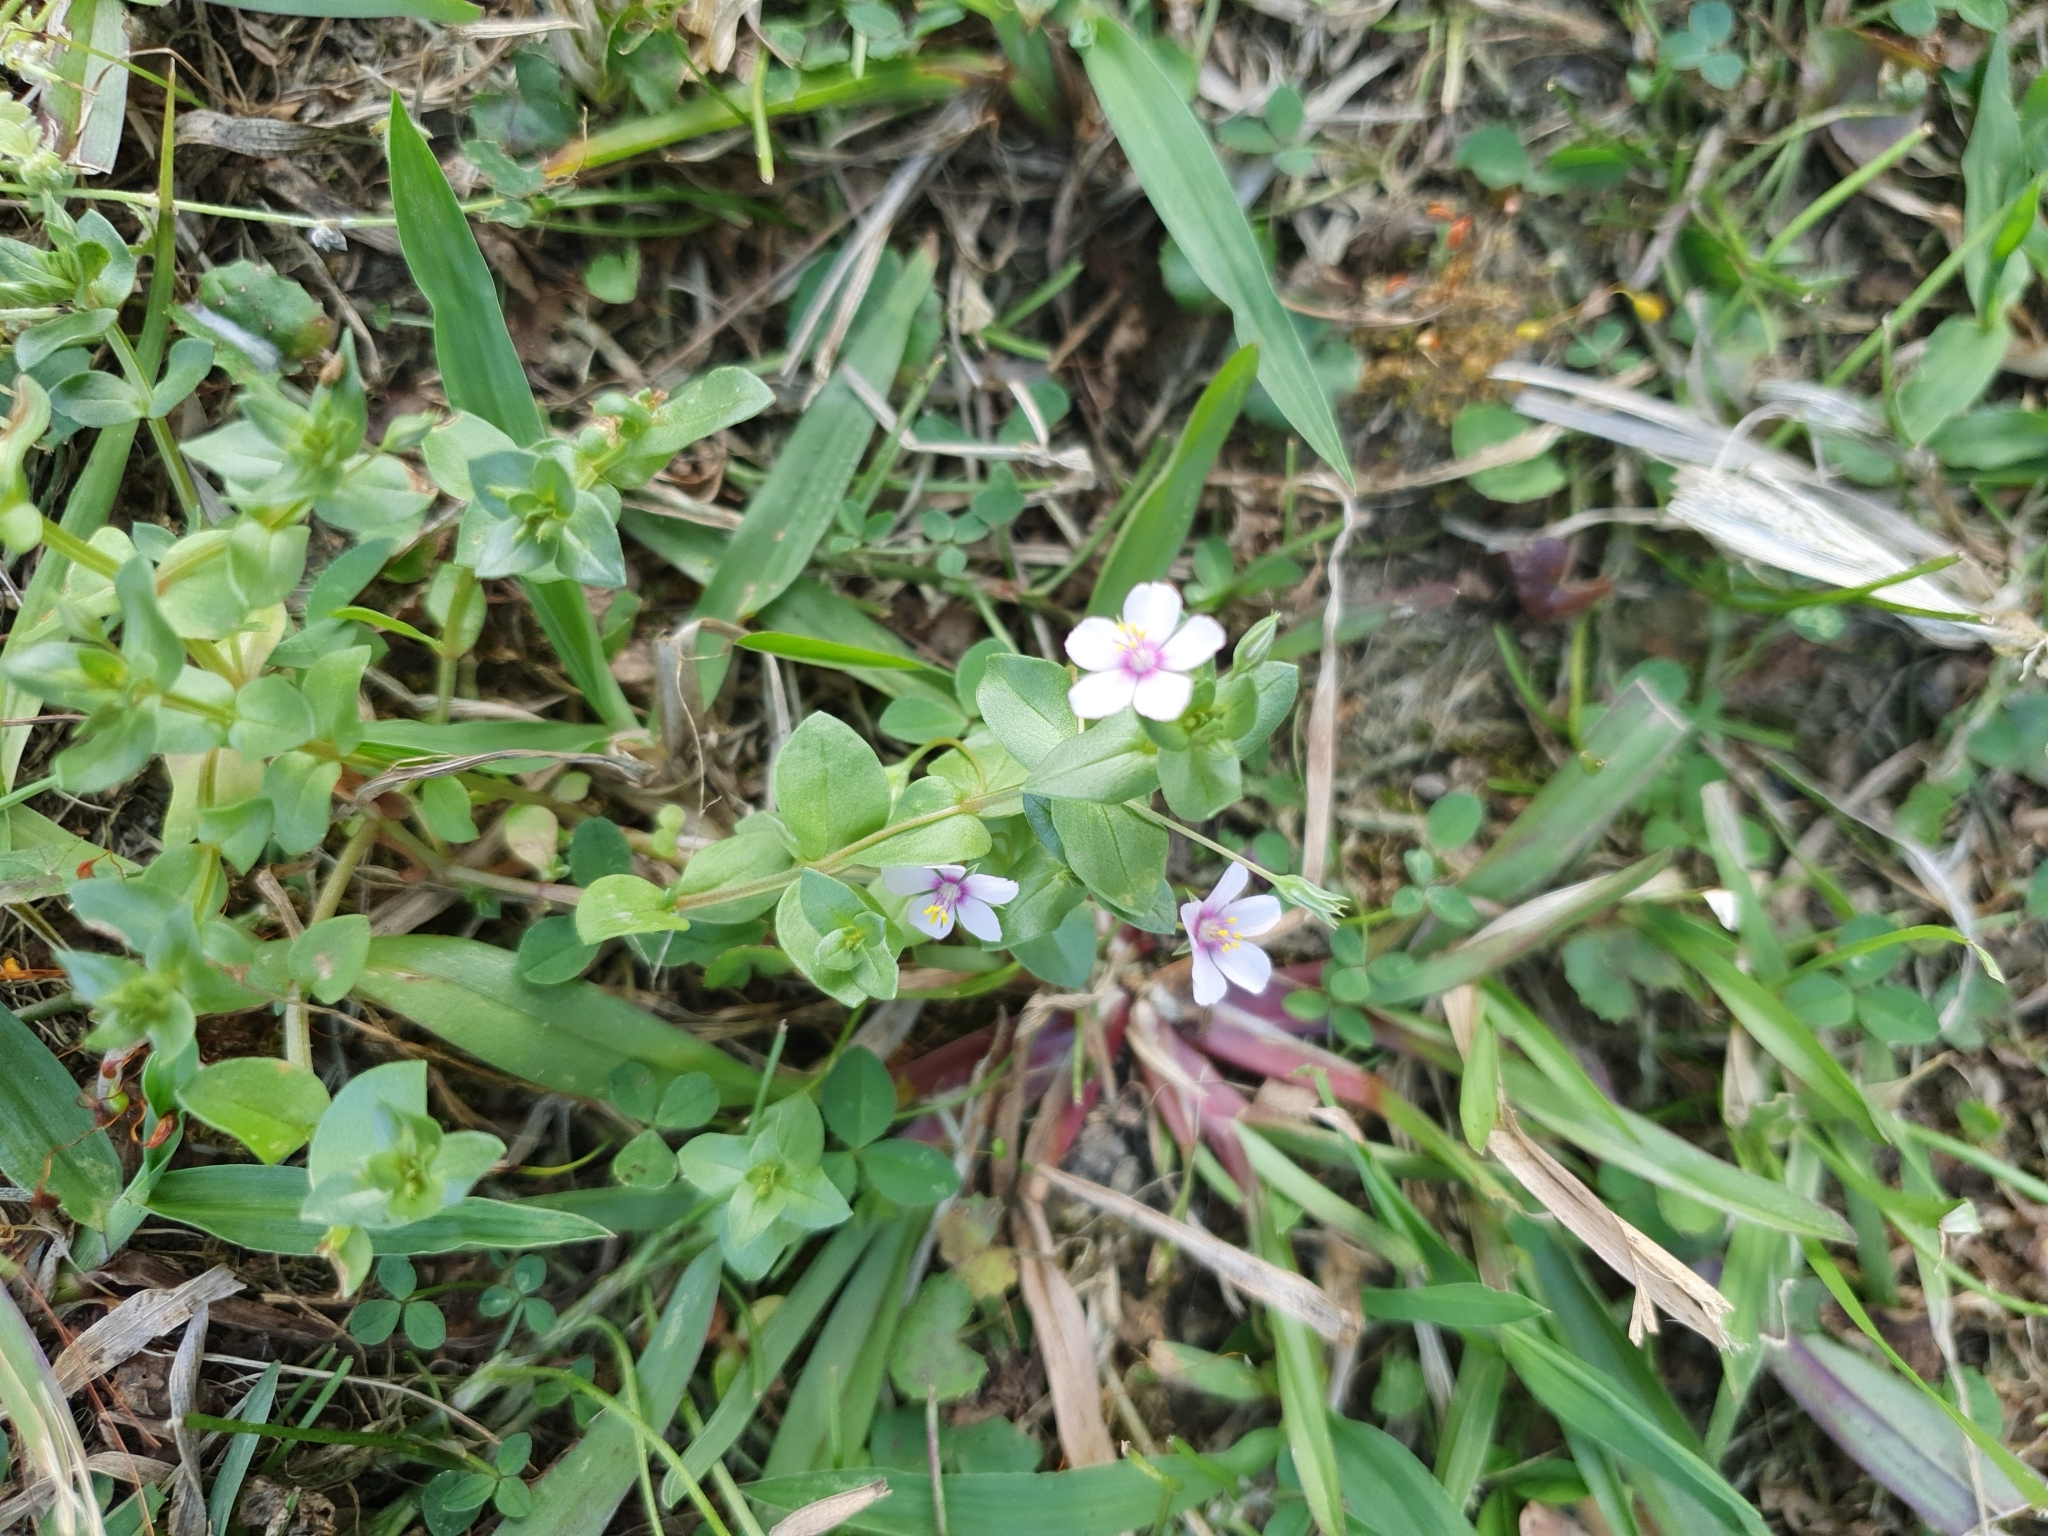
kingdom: Plantae
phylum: Tracheophyta
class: Magnoliopsida
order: Ericales
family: Primulaceae
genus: Lysimachia
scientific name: Lysimachia arvensis
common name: Scarlet pimpernel
